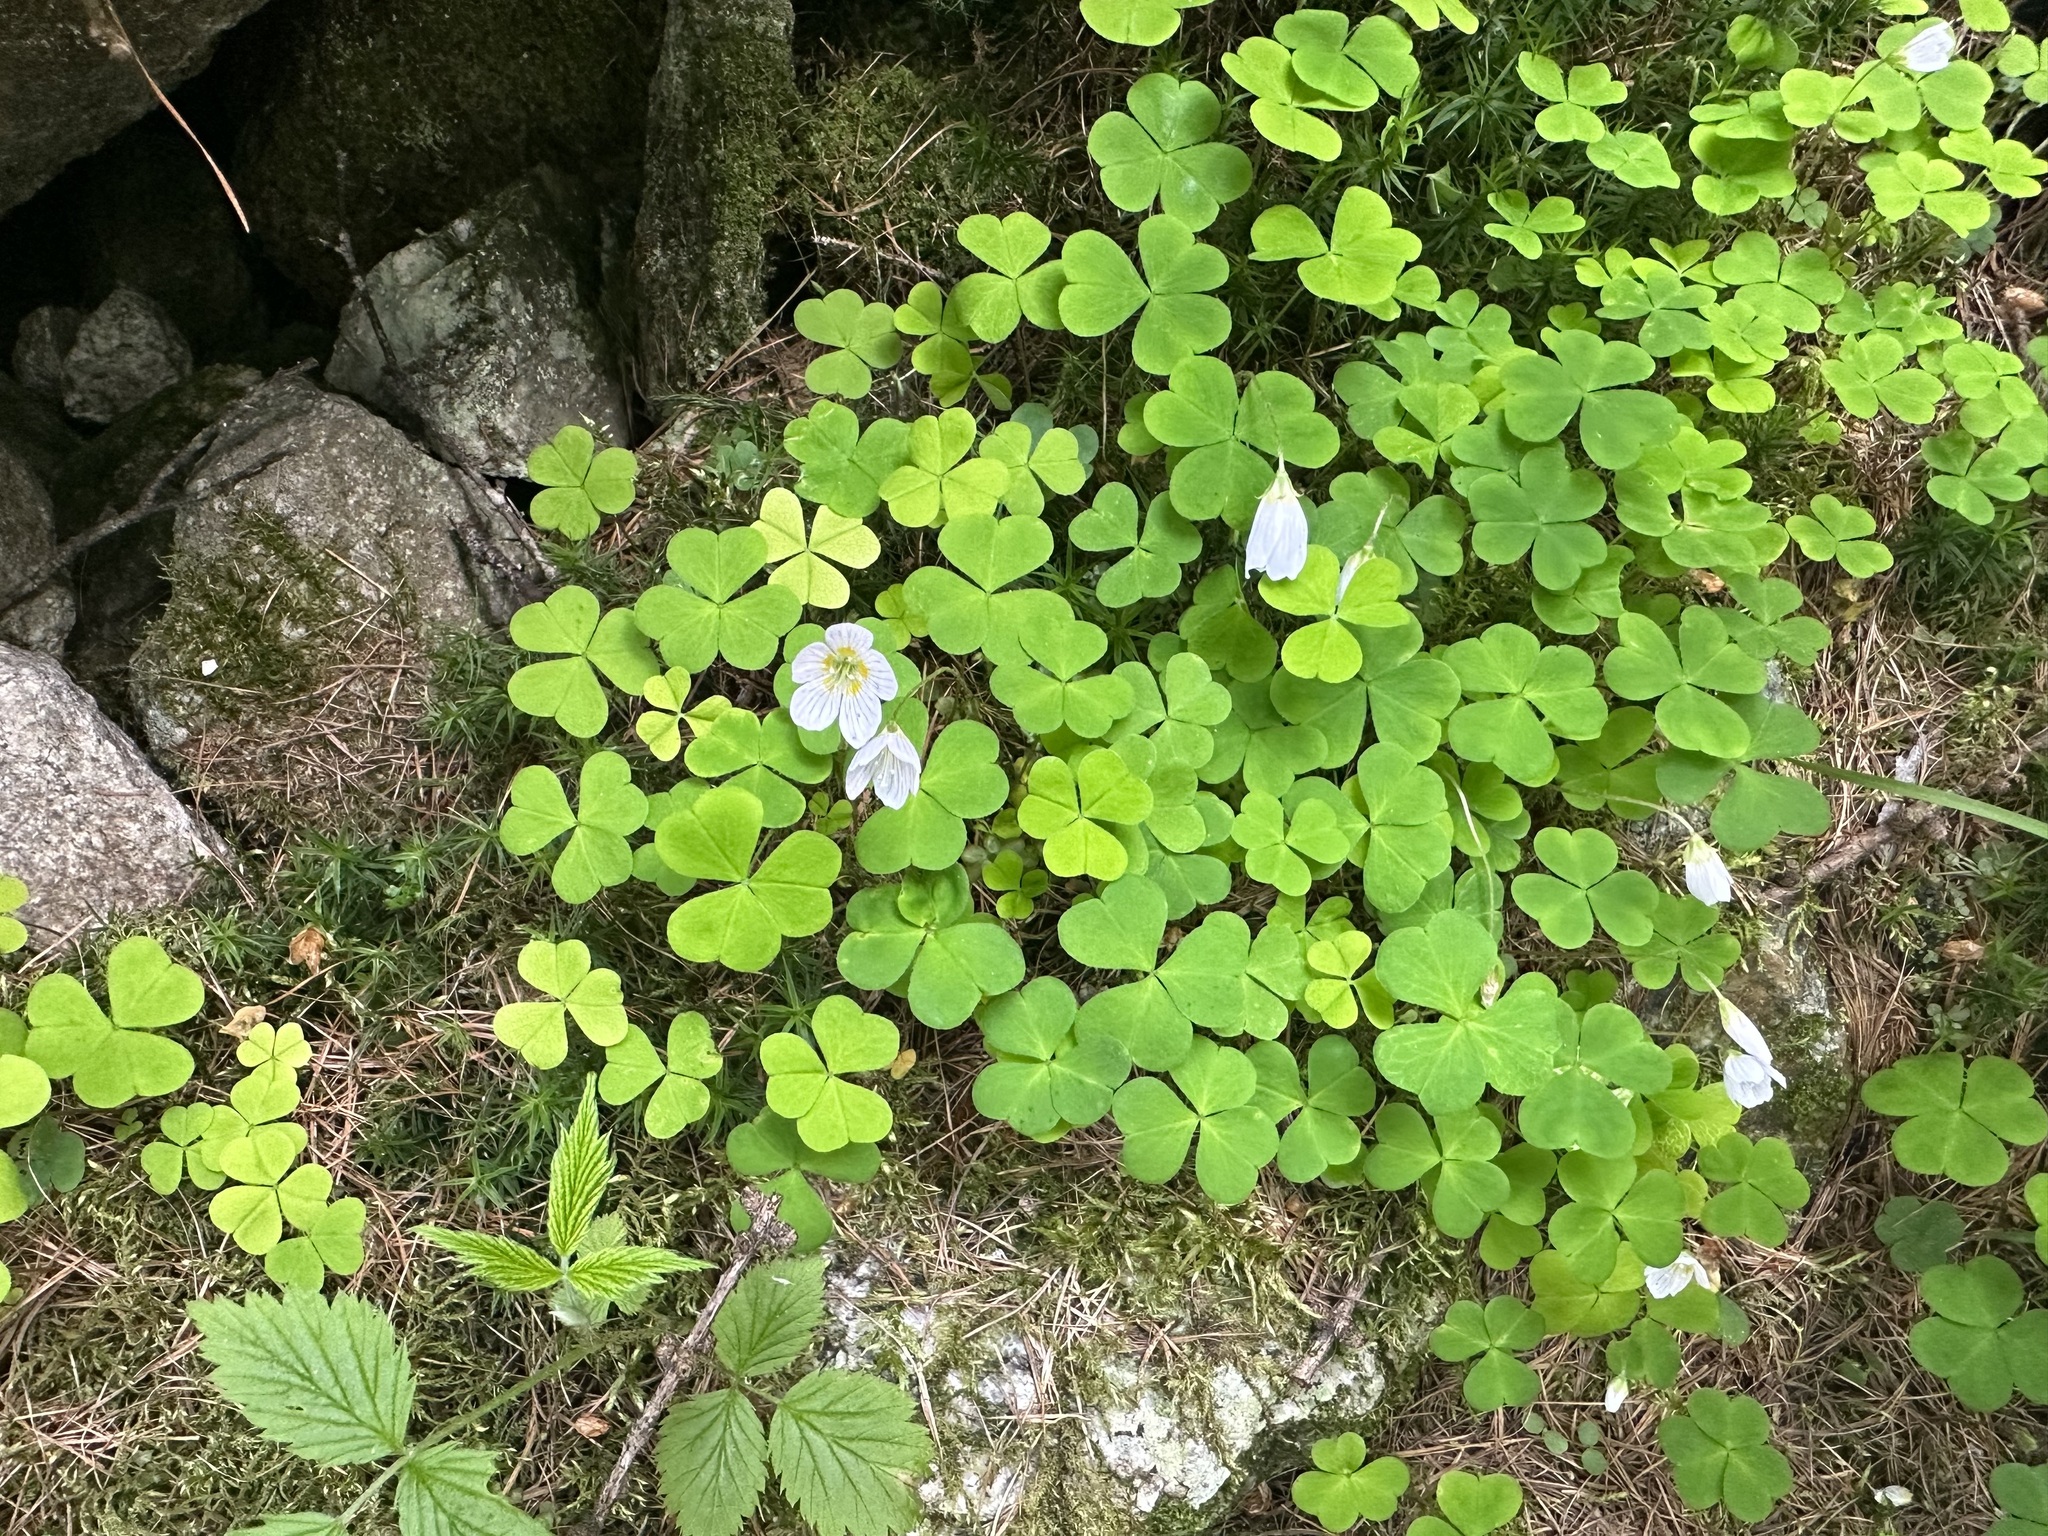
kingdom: Plantae
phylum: Tracheophyta
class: Magnoliopsida
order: Oxalidales
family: Oxalidaceae
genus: Oxalis
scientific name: Oxalis acetosella
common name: Wood-sorrel
